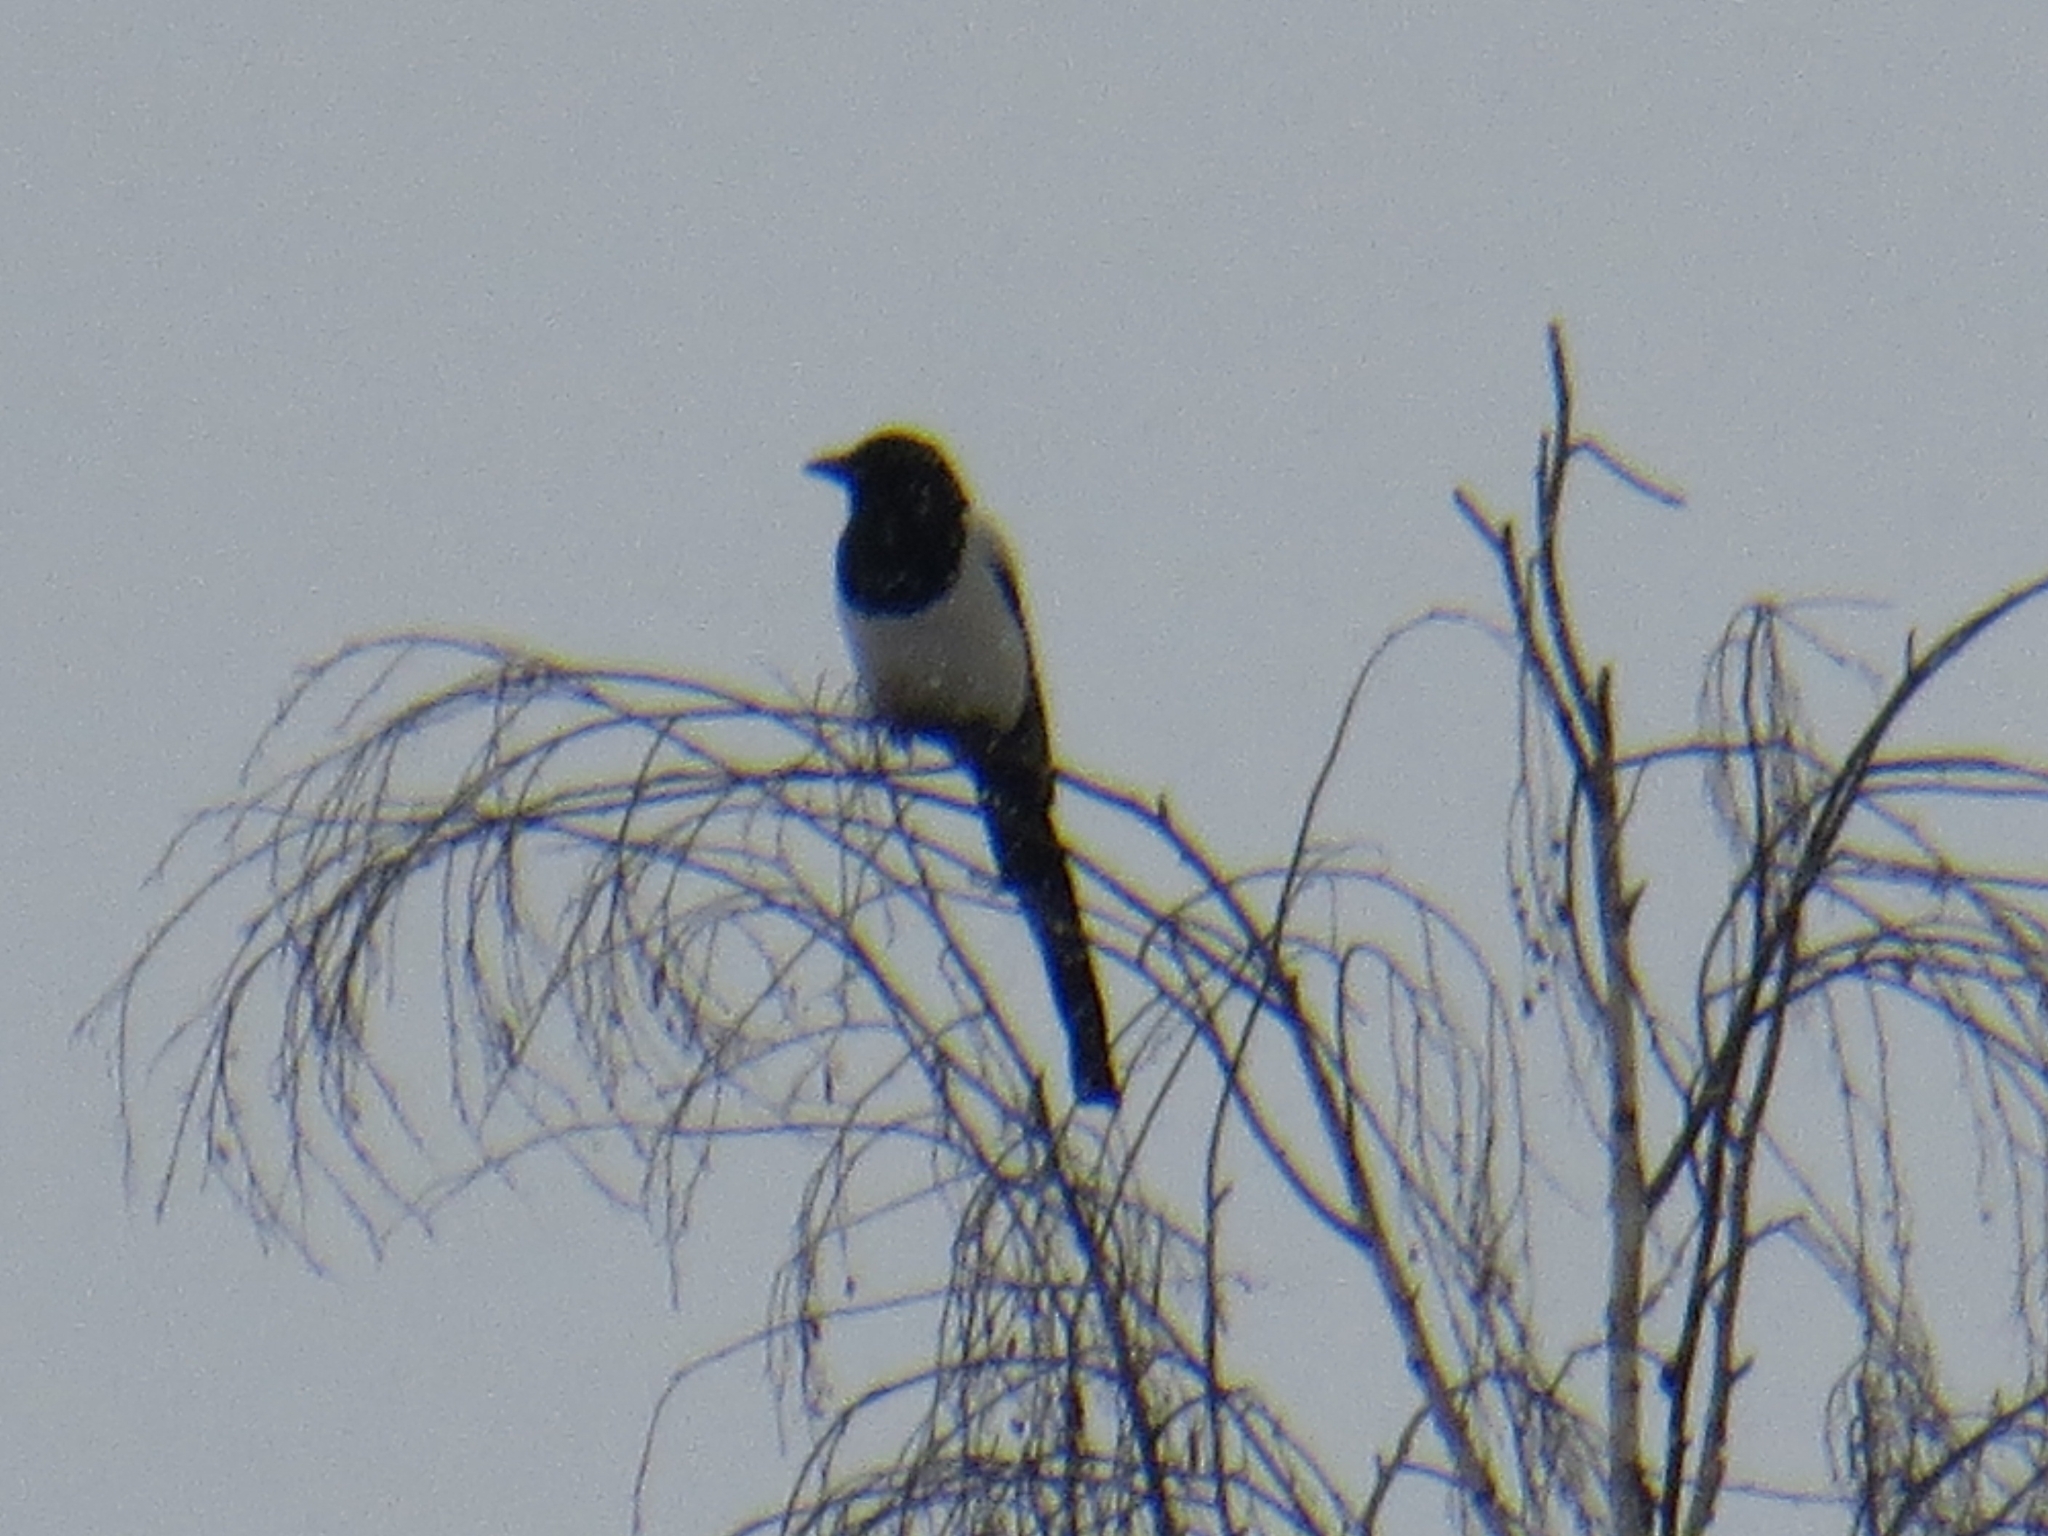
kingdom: Animalia
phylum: Chordata
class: Aves
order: Passeriformes
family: Corvidae
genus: Pica
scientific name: Pica pica
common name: Eurasian magpie
